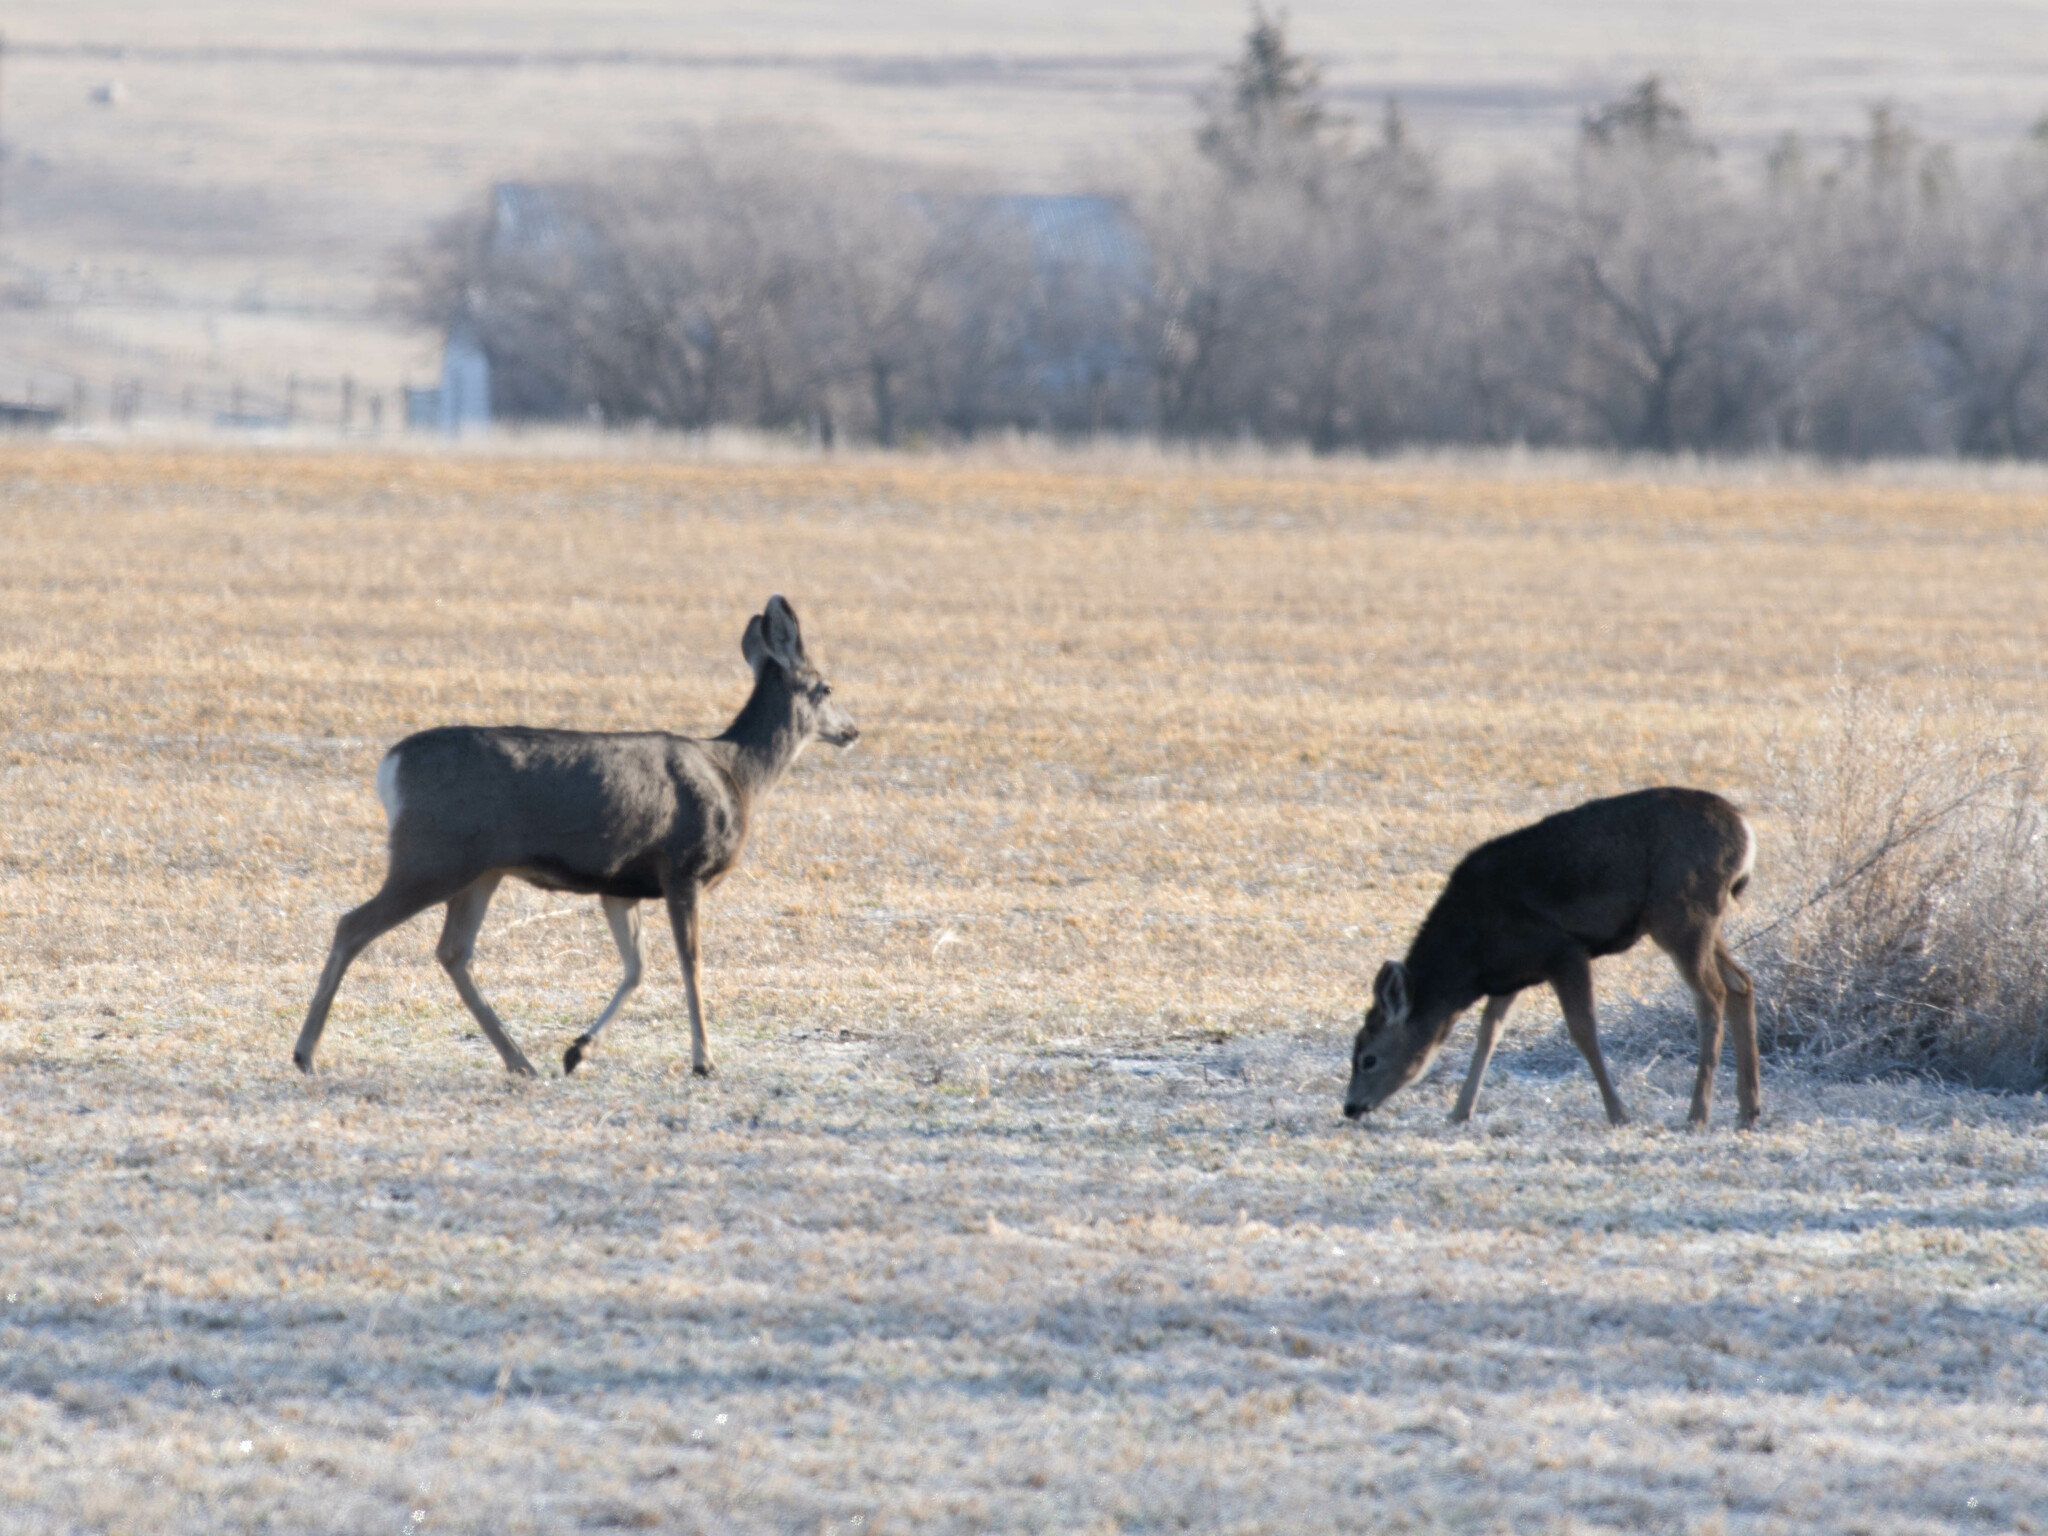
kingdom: Animalia
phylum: Chordata
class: Mammalia
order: Artiodactyla
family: Cervidae
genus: Odocoileus
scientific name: Odocoileus hemionus
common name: Mule deer
